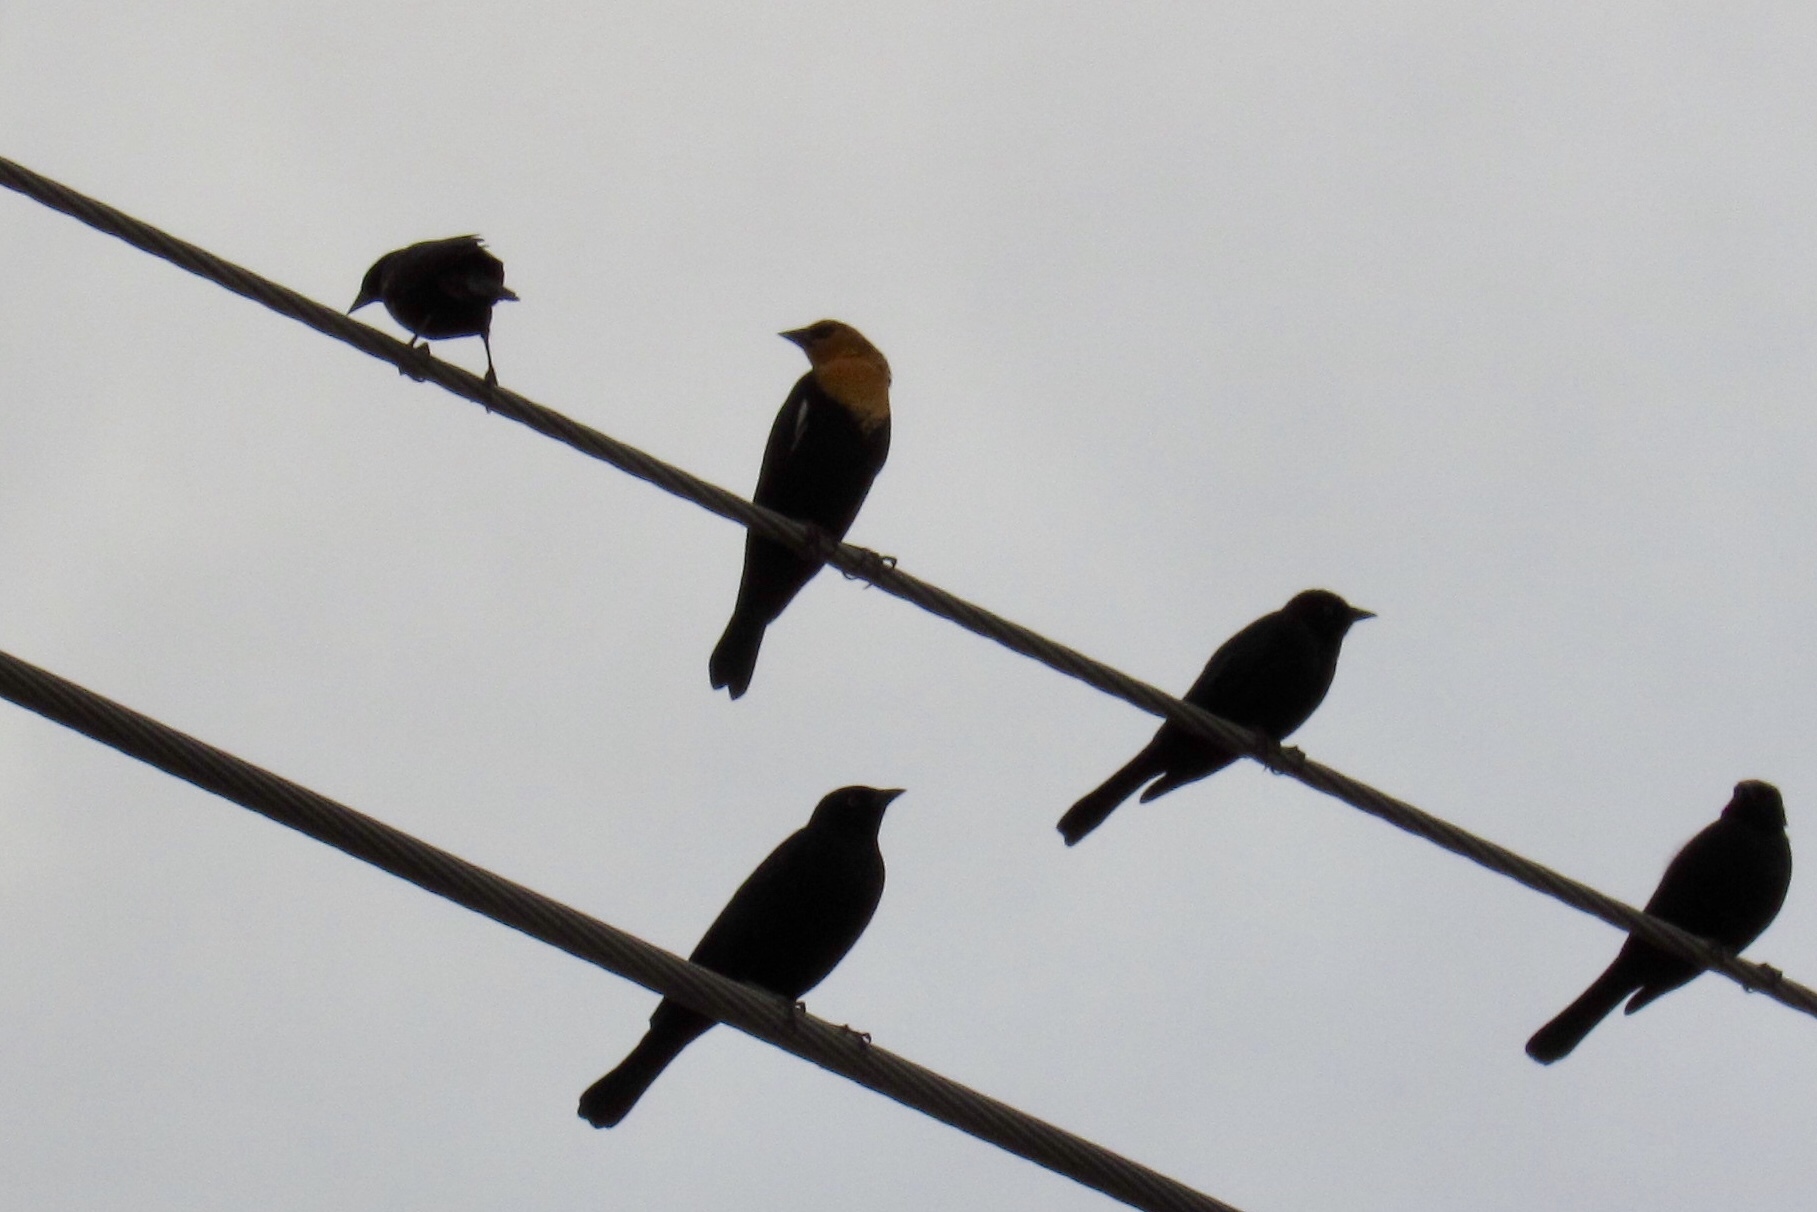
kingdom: Animalia
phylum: Chordata
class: Aves
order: Passeriformes
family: Icteridae
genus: Xanthocephalus
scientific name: Xanthocephalus xanthocephalus
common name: Yellow-headed blackbird
